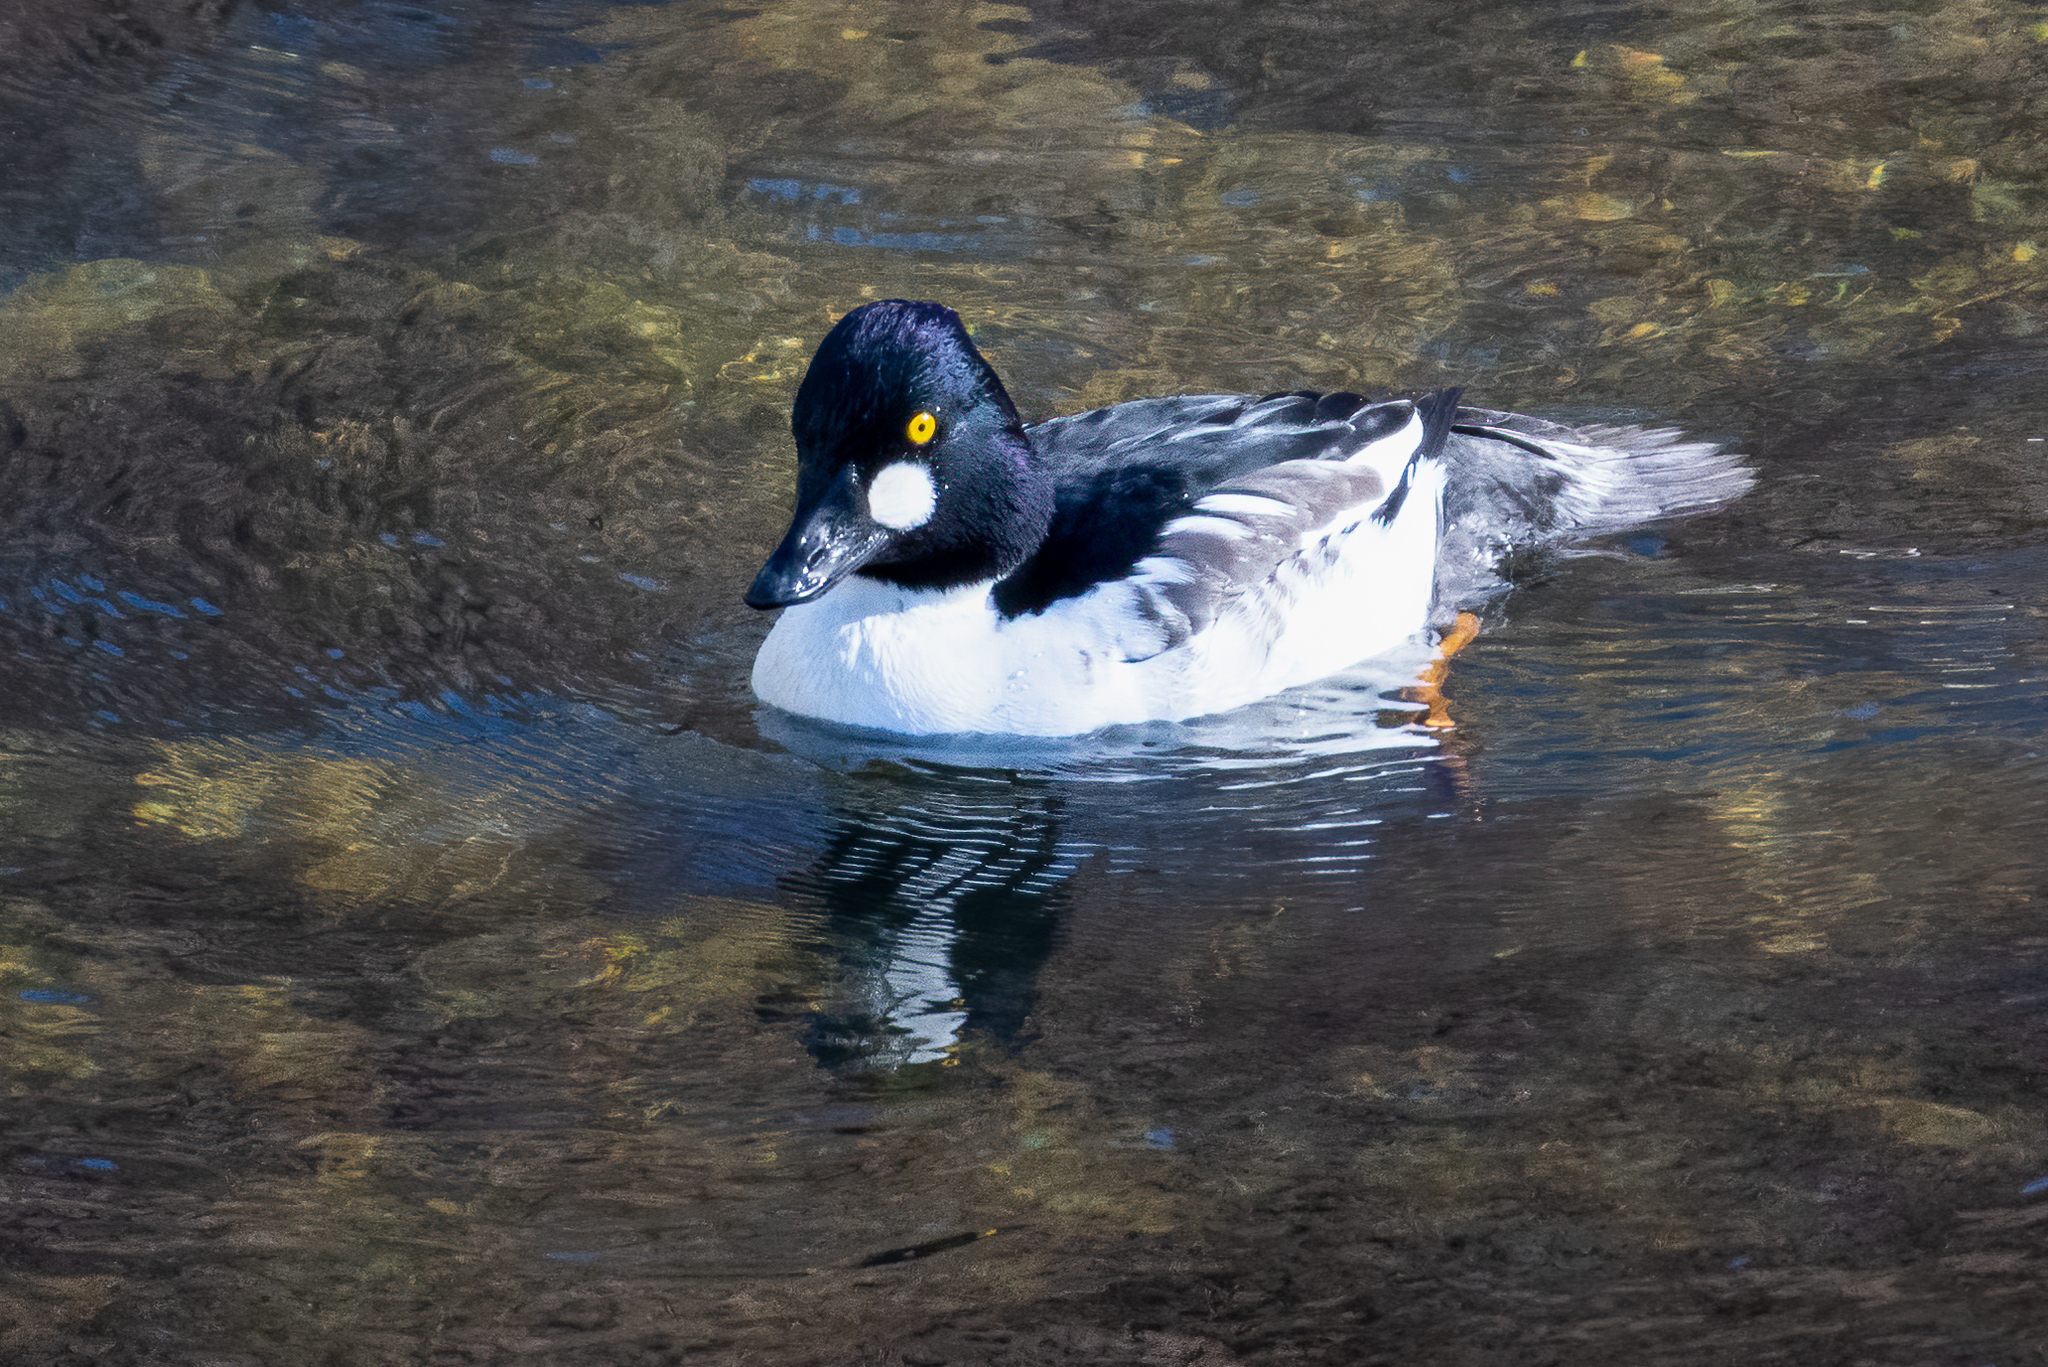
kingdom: Animalia
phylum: Chordata
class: Aves
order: Anseriformes
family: Anatidae
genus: Bucephala
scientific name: Bucephala clangula
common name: Common goldeneye
